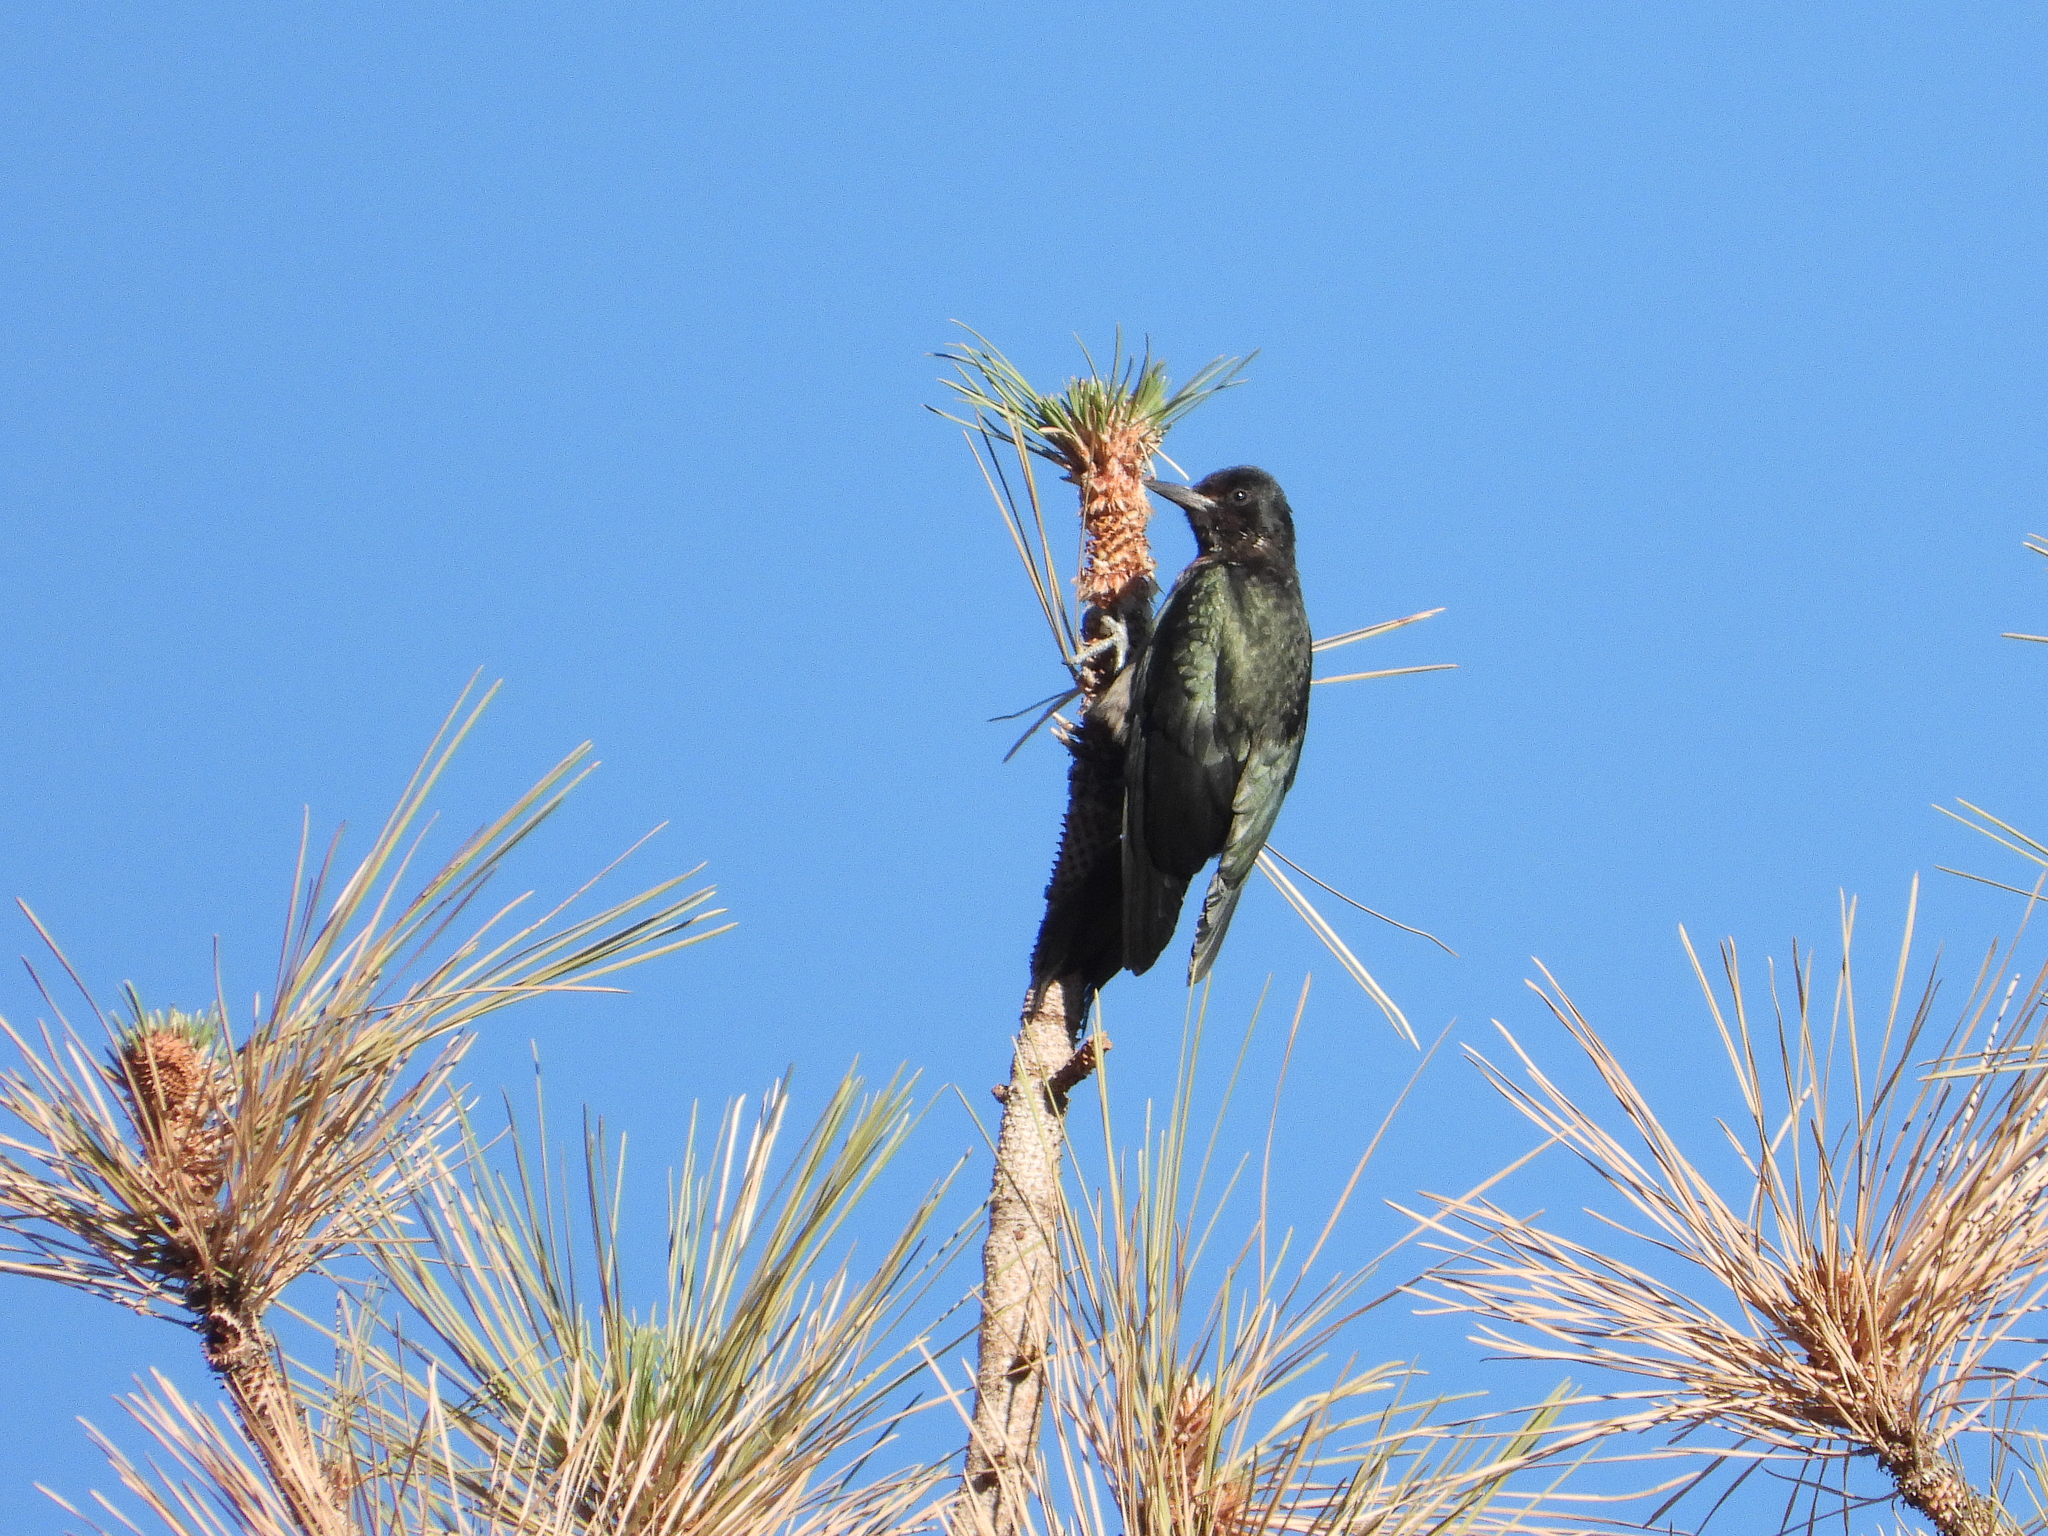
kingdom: Animalia
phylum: Chordata
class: Aves
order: Piciformes
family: Picidae
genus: Melanerpes
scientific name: Melanerpes lewis
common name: Lewis's woodpecker
